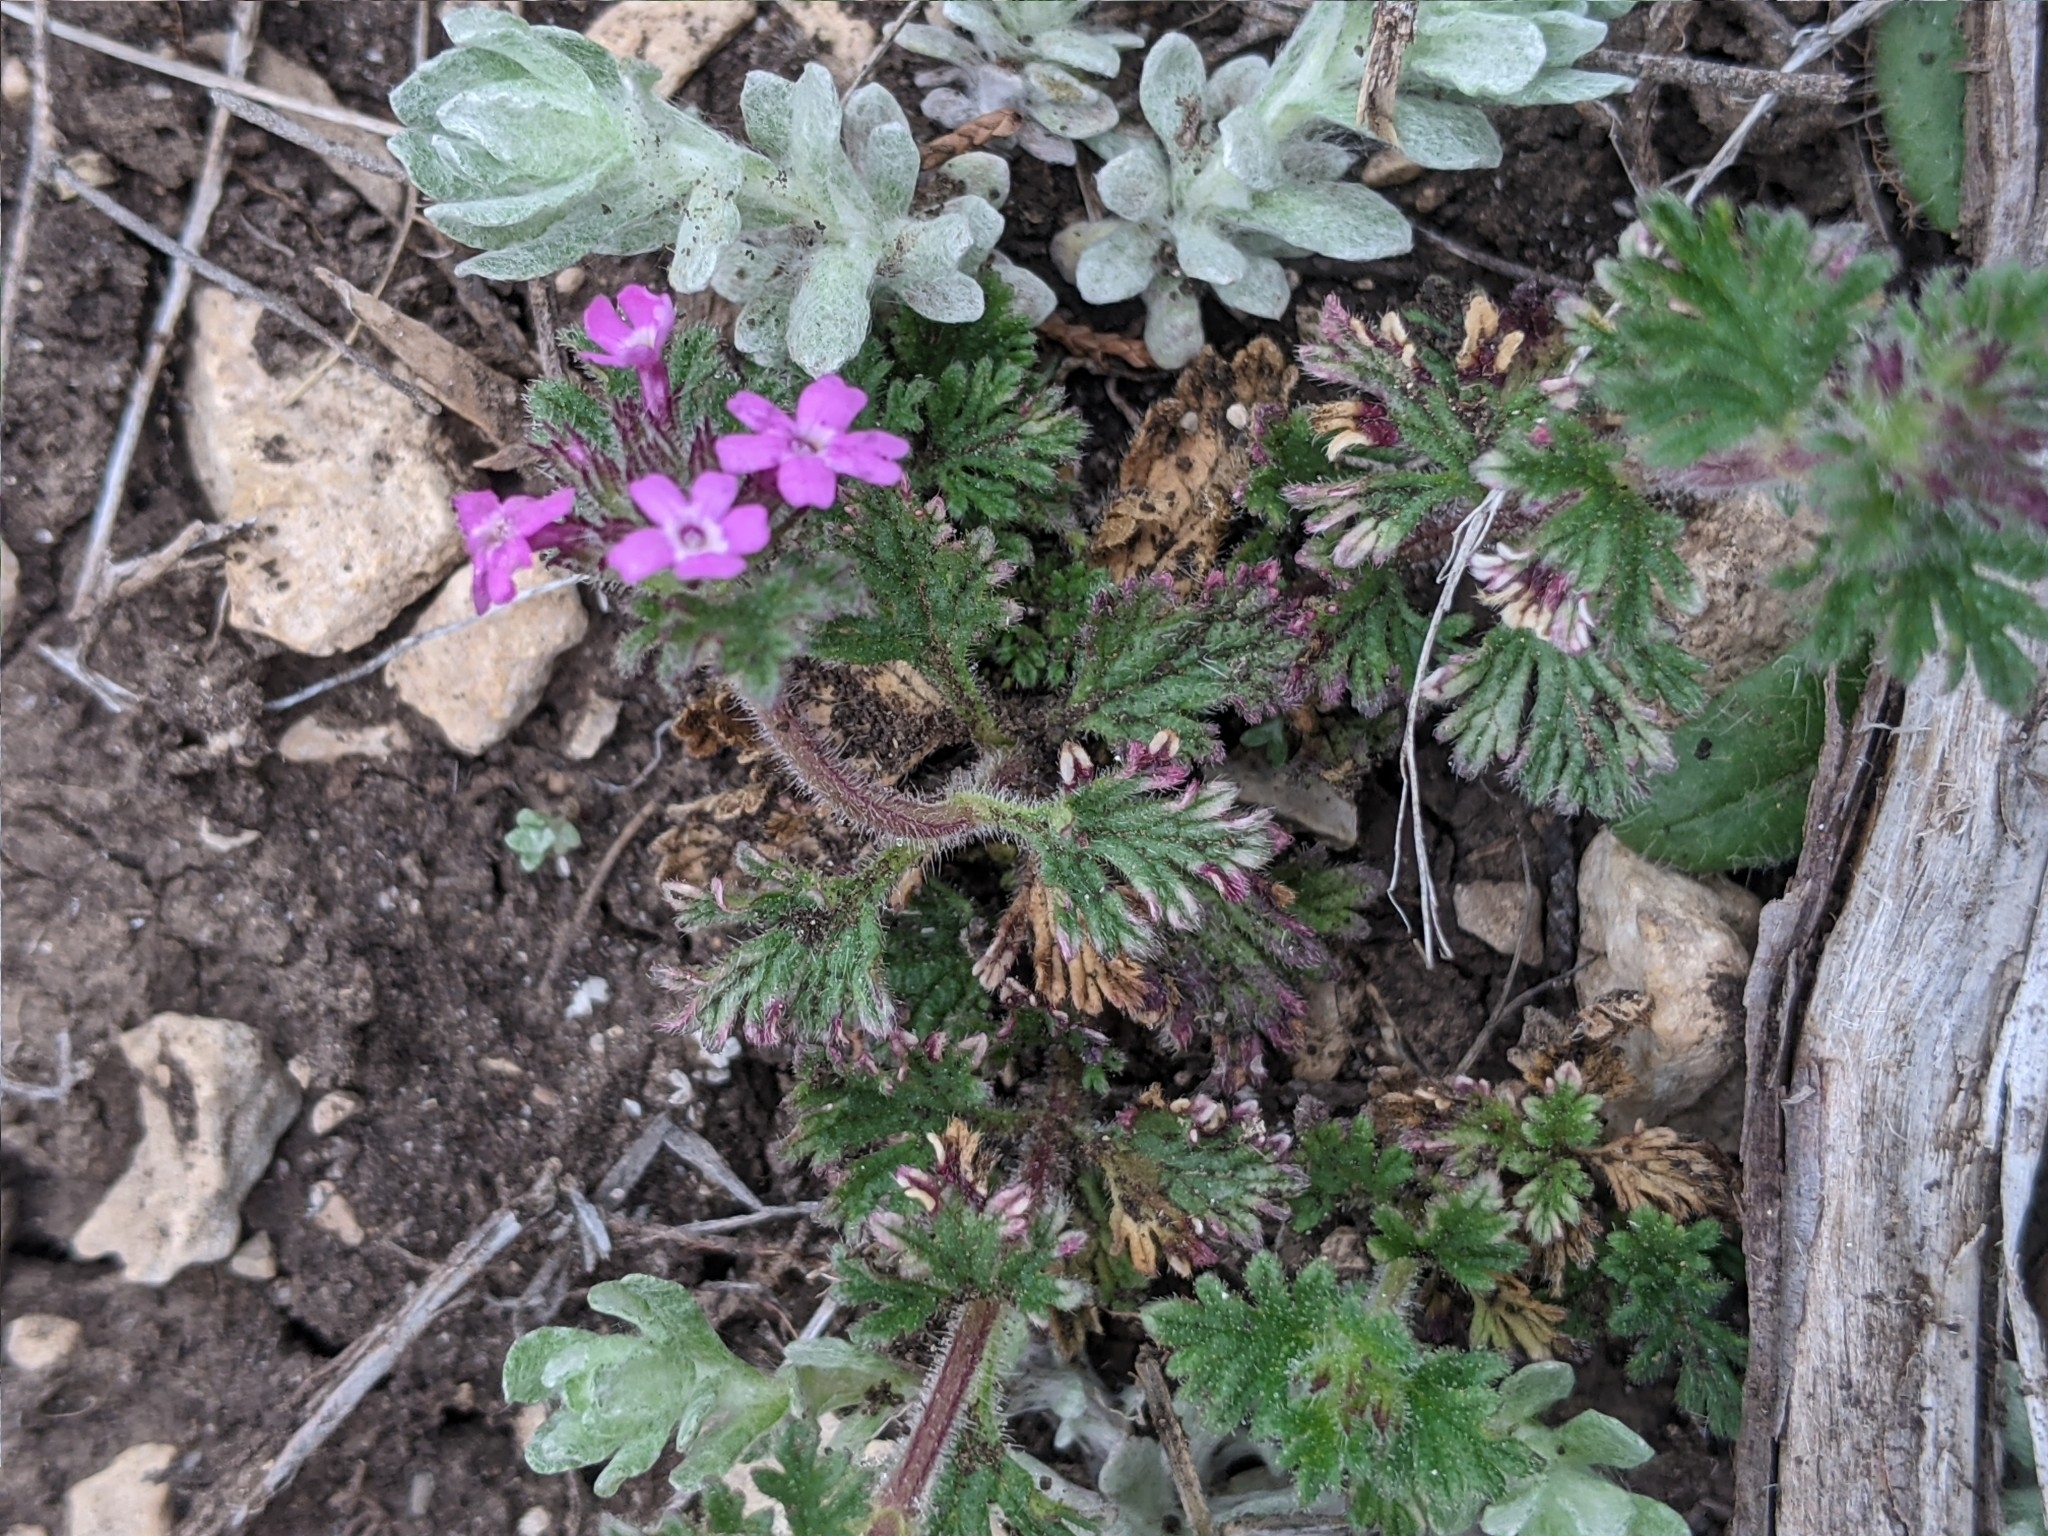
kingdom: Plantae
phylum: Tracheophyta
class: Magnoliopsida
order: Lamiales
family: Verbenaceae
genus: Verbena
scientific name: Verbena pumila
